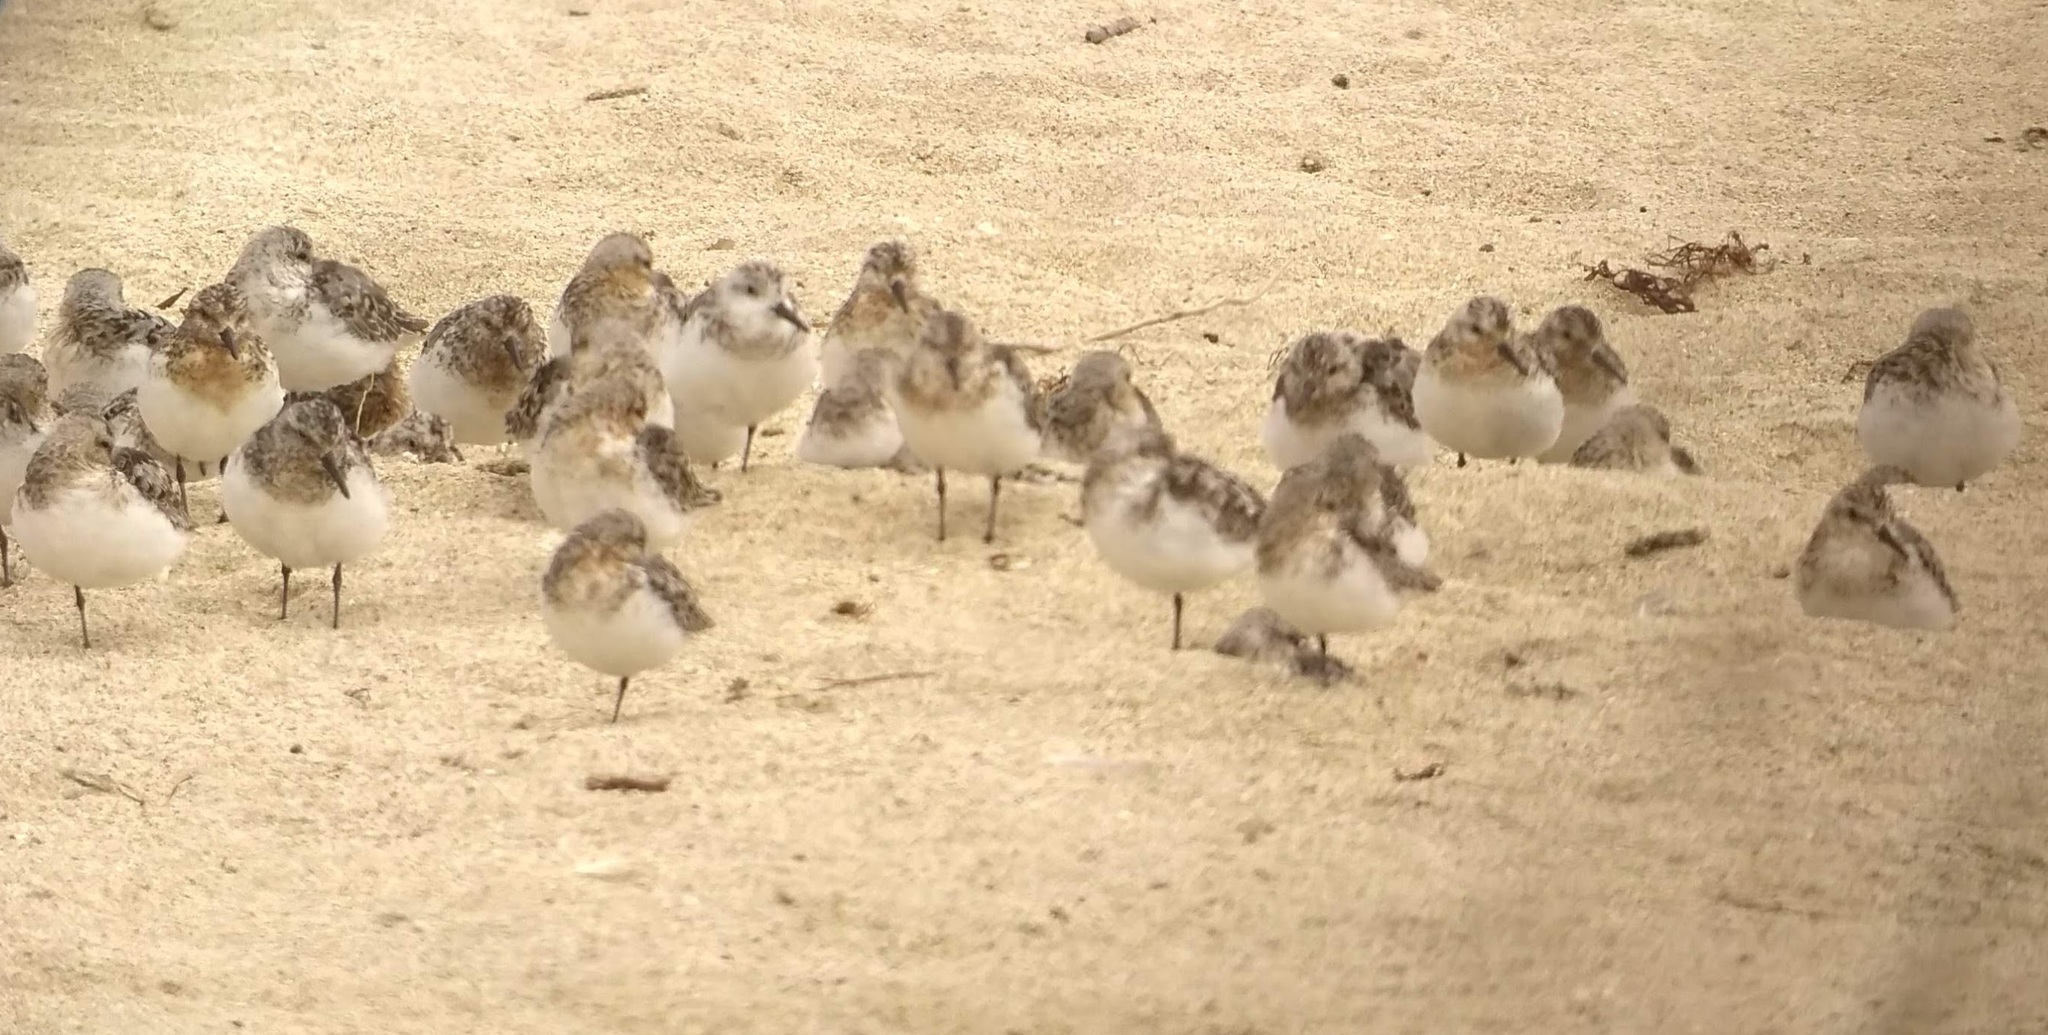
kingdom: Animalia
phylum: Chordata
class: Aves
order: Charadriiformes
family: Scolopacidae
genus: Calidris
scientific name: Calidris alba
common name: Sanderling
